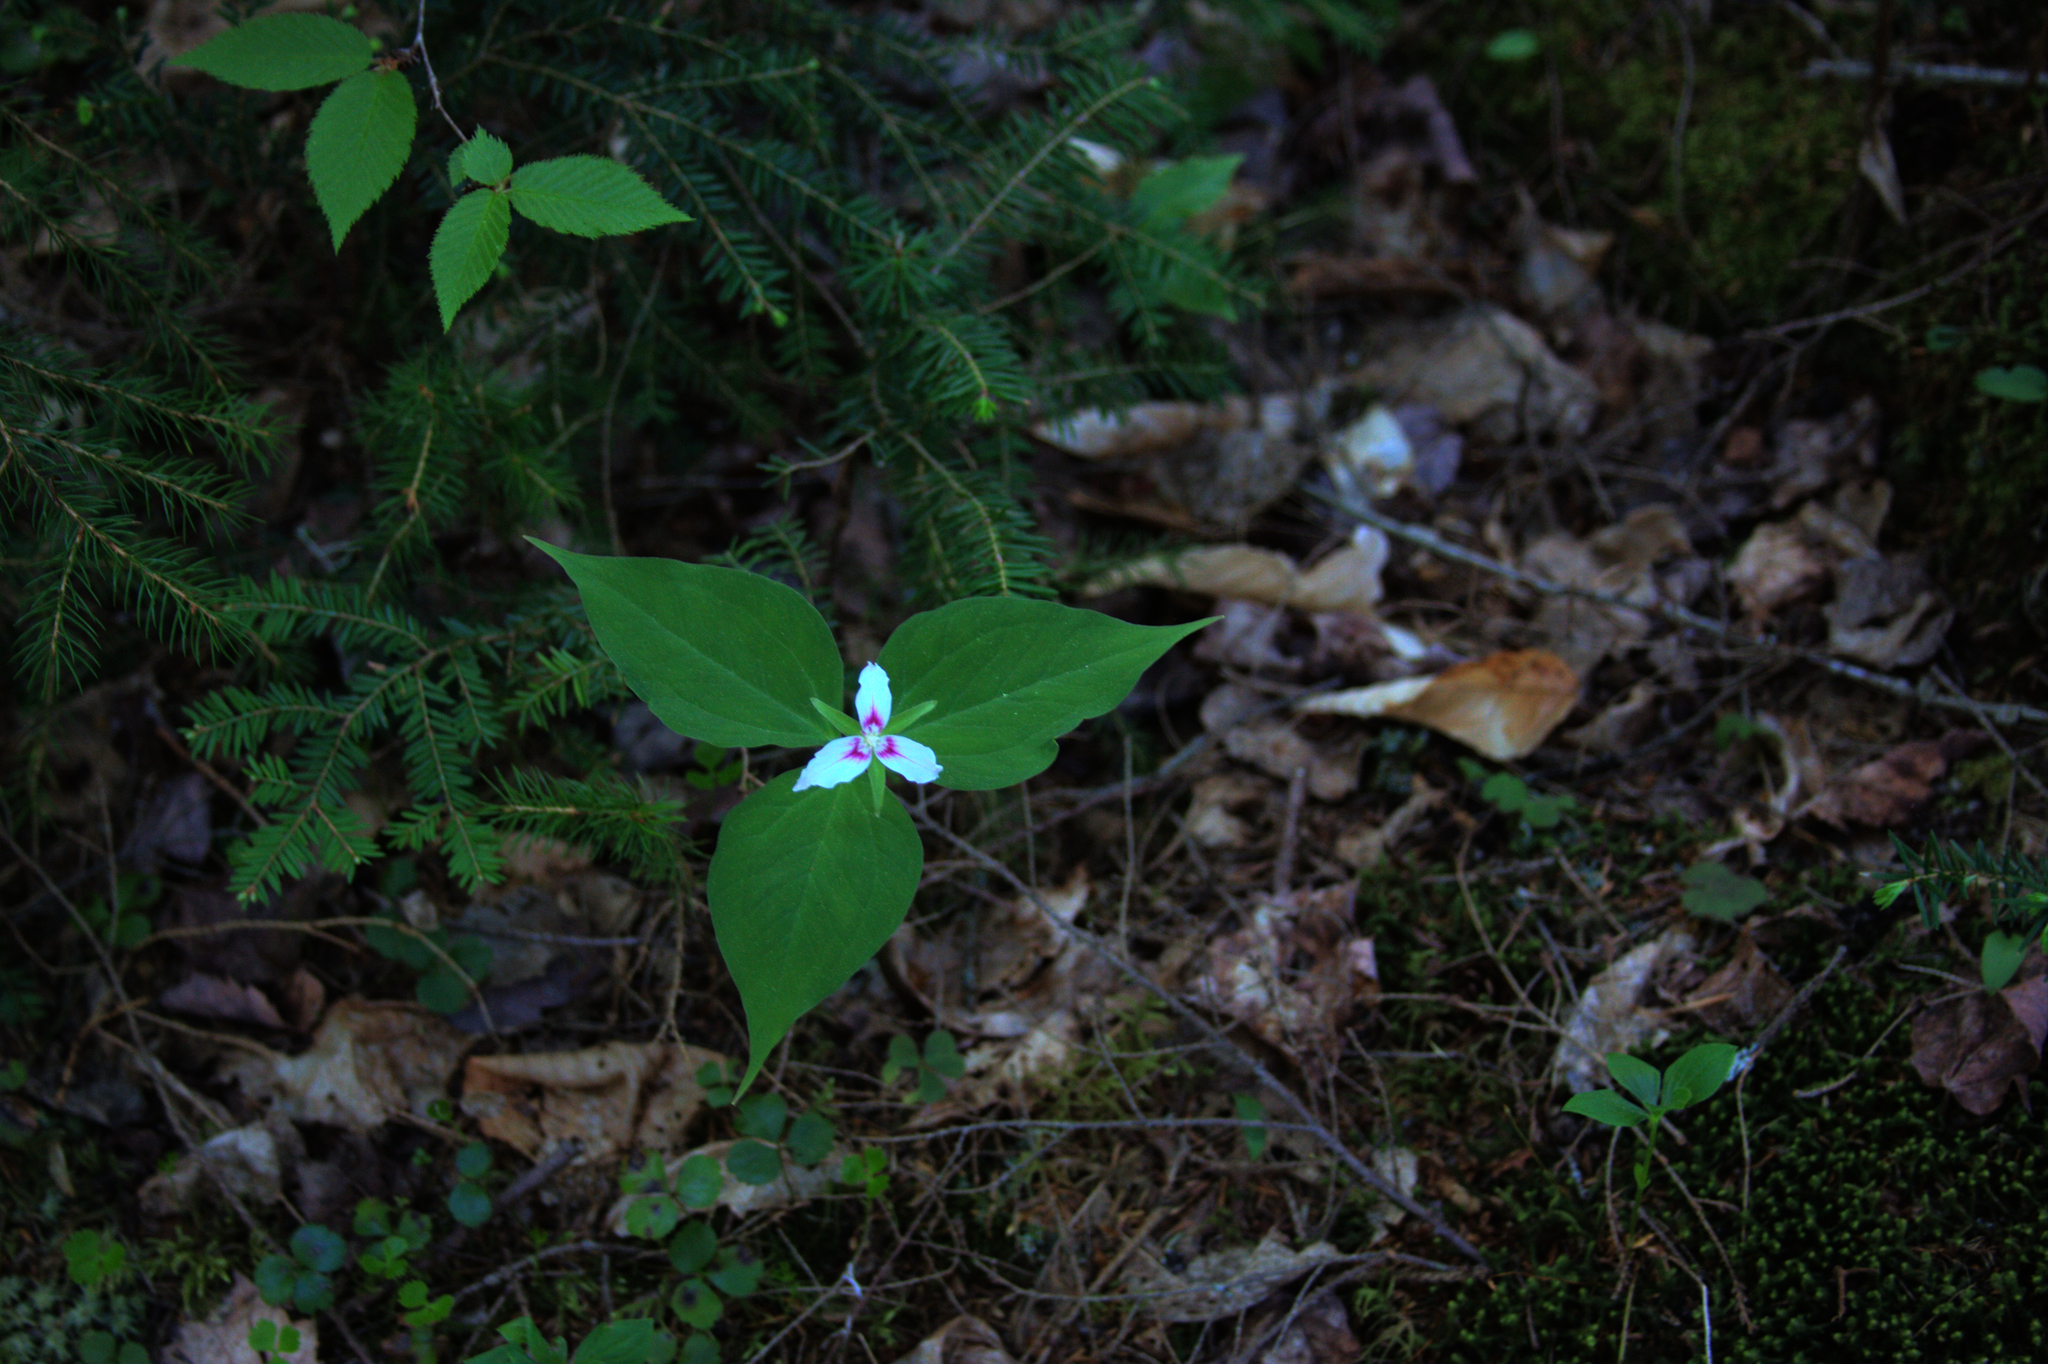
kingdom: Plantae
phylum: Tracheophyta
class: Liliopsida
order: Liliales
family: Melanthiaceae
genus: Trillium
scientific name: Trillium undulatum
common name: Paint trillium
